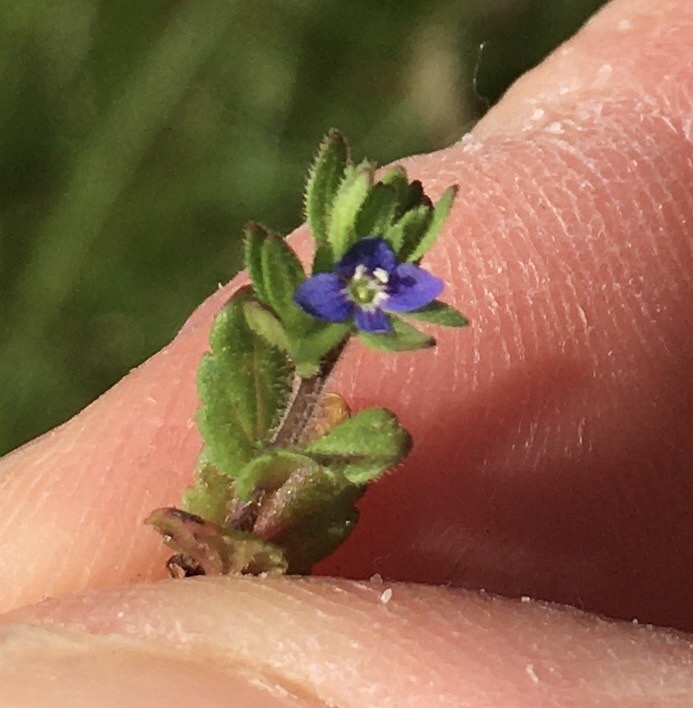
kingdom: Plantae
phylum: Tracheophyta
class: Magnoliopsida
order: Lamiales
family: Plantaginaceae
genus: Veronica
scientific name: Veronica arvensis
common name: Corn speedwell
